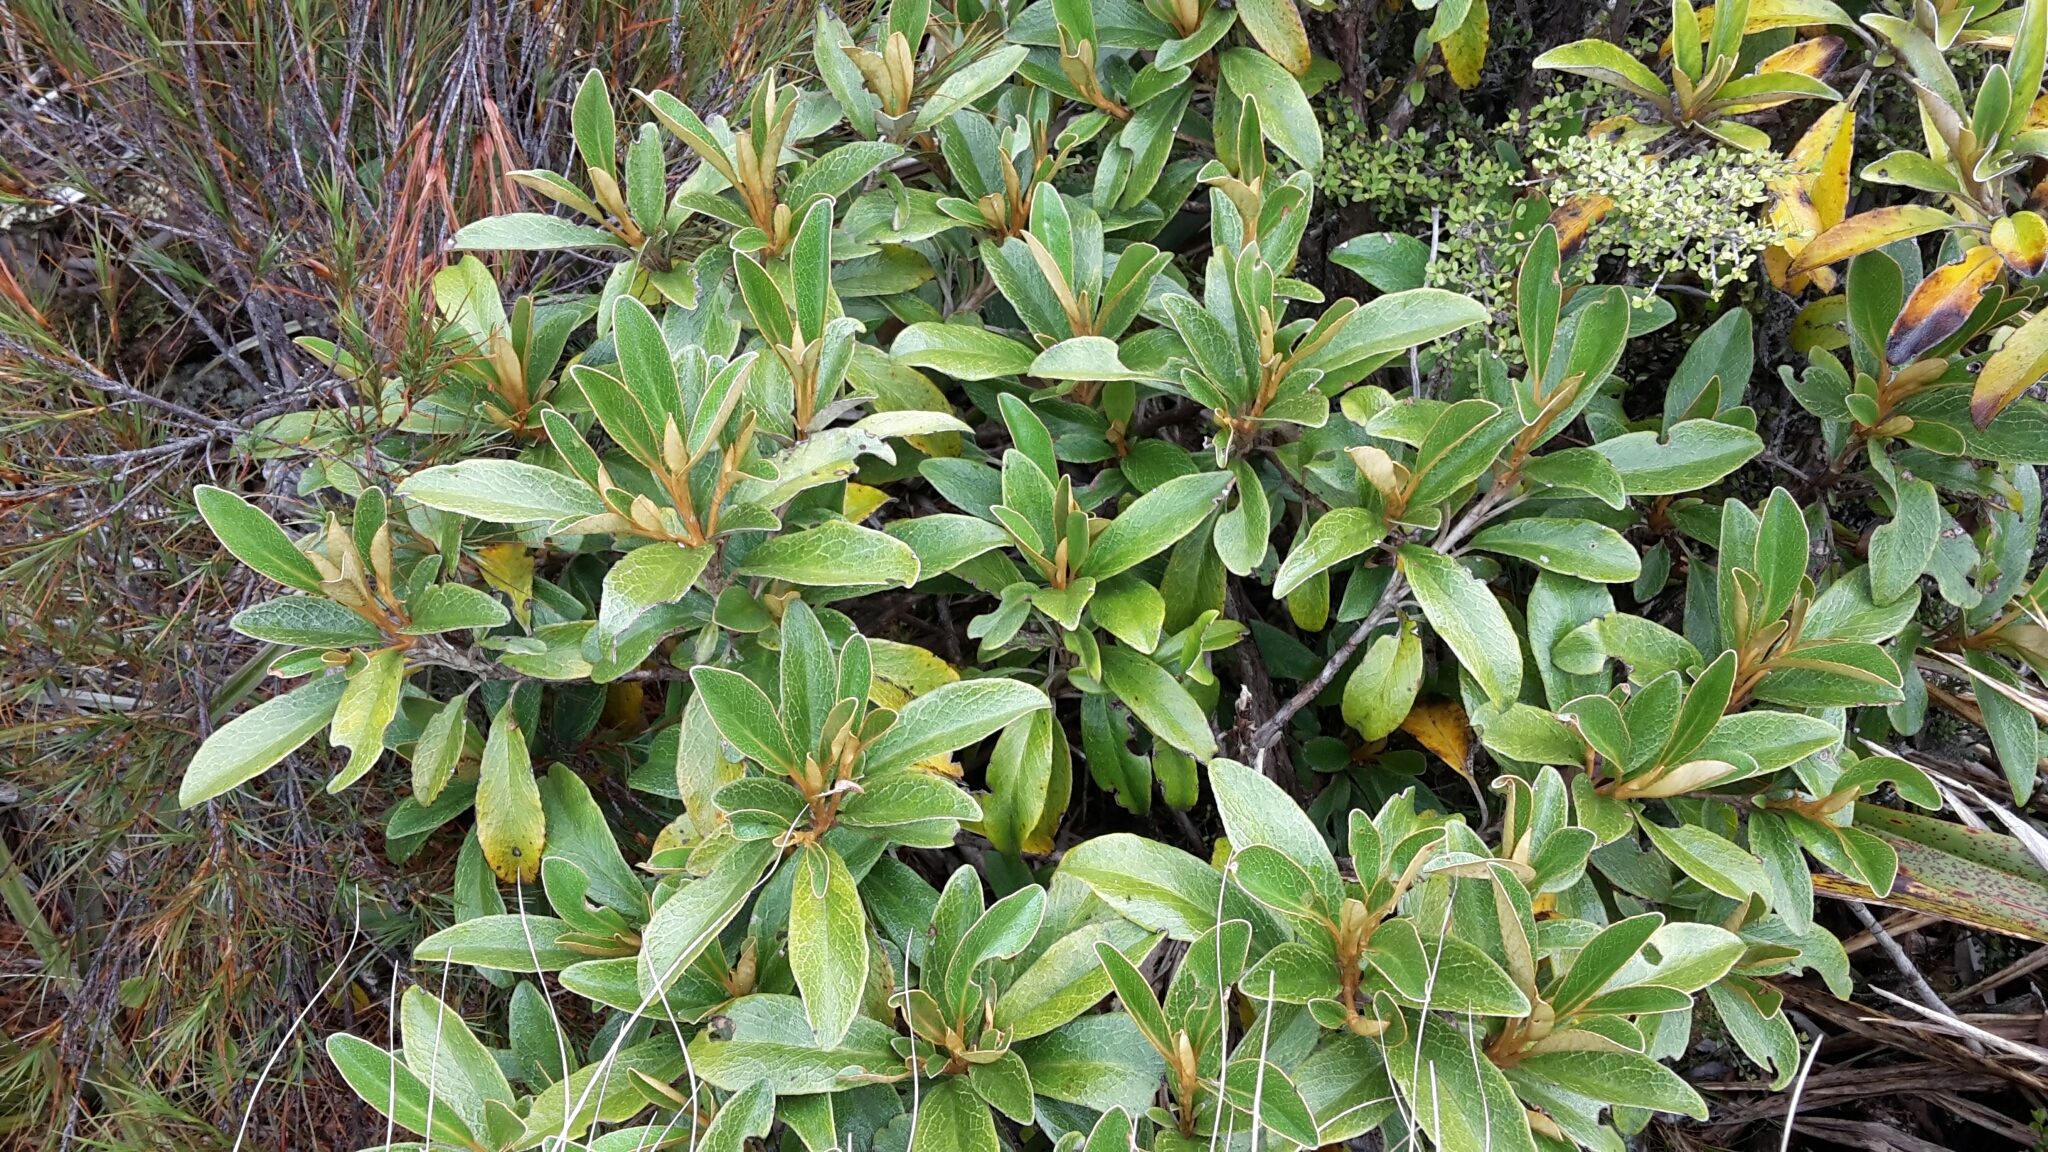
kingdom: Plantae
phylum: Tracheophyta
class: Magnoliopsida
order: Asterales
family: Asteraceae
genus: Brachyglottis
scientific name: Brachyglottis elaeagnifolia
